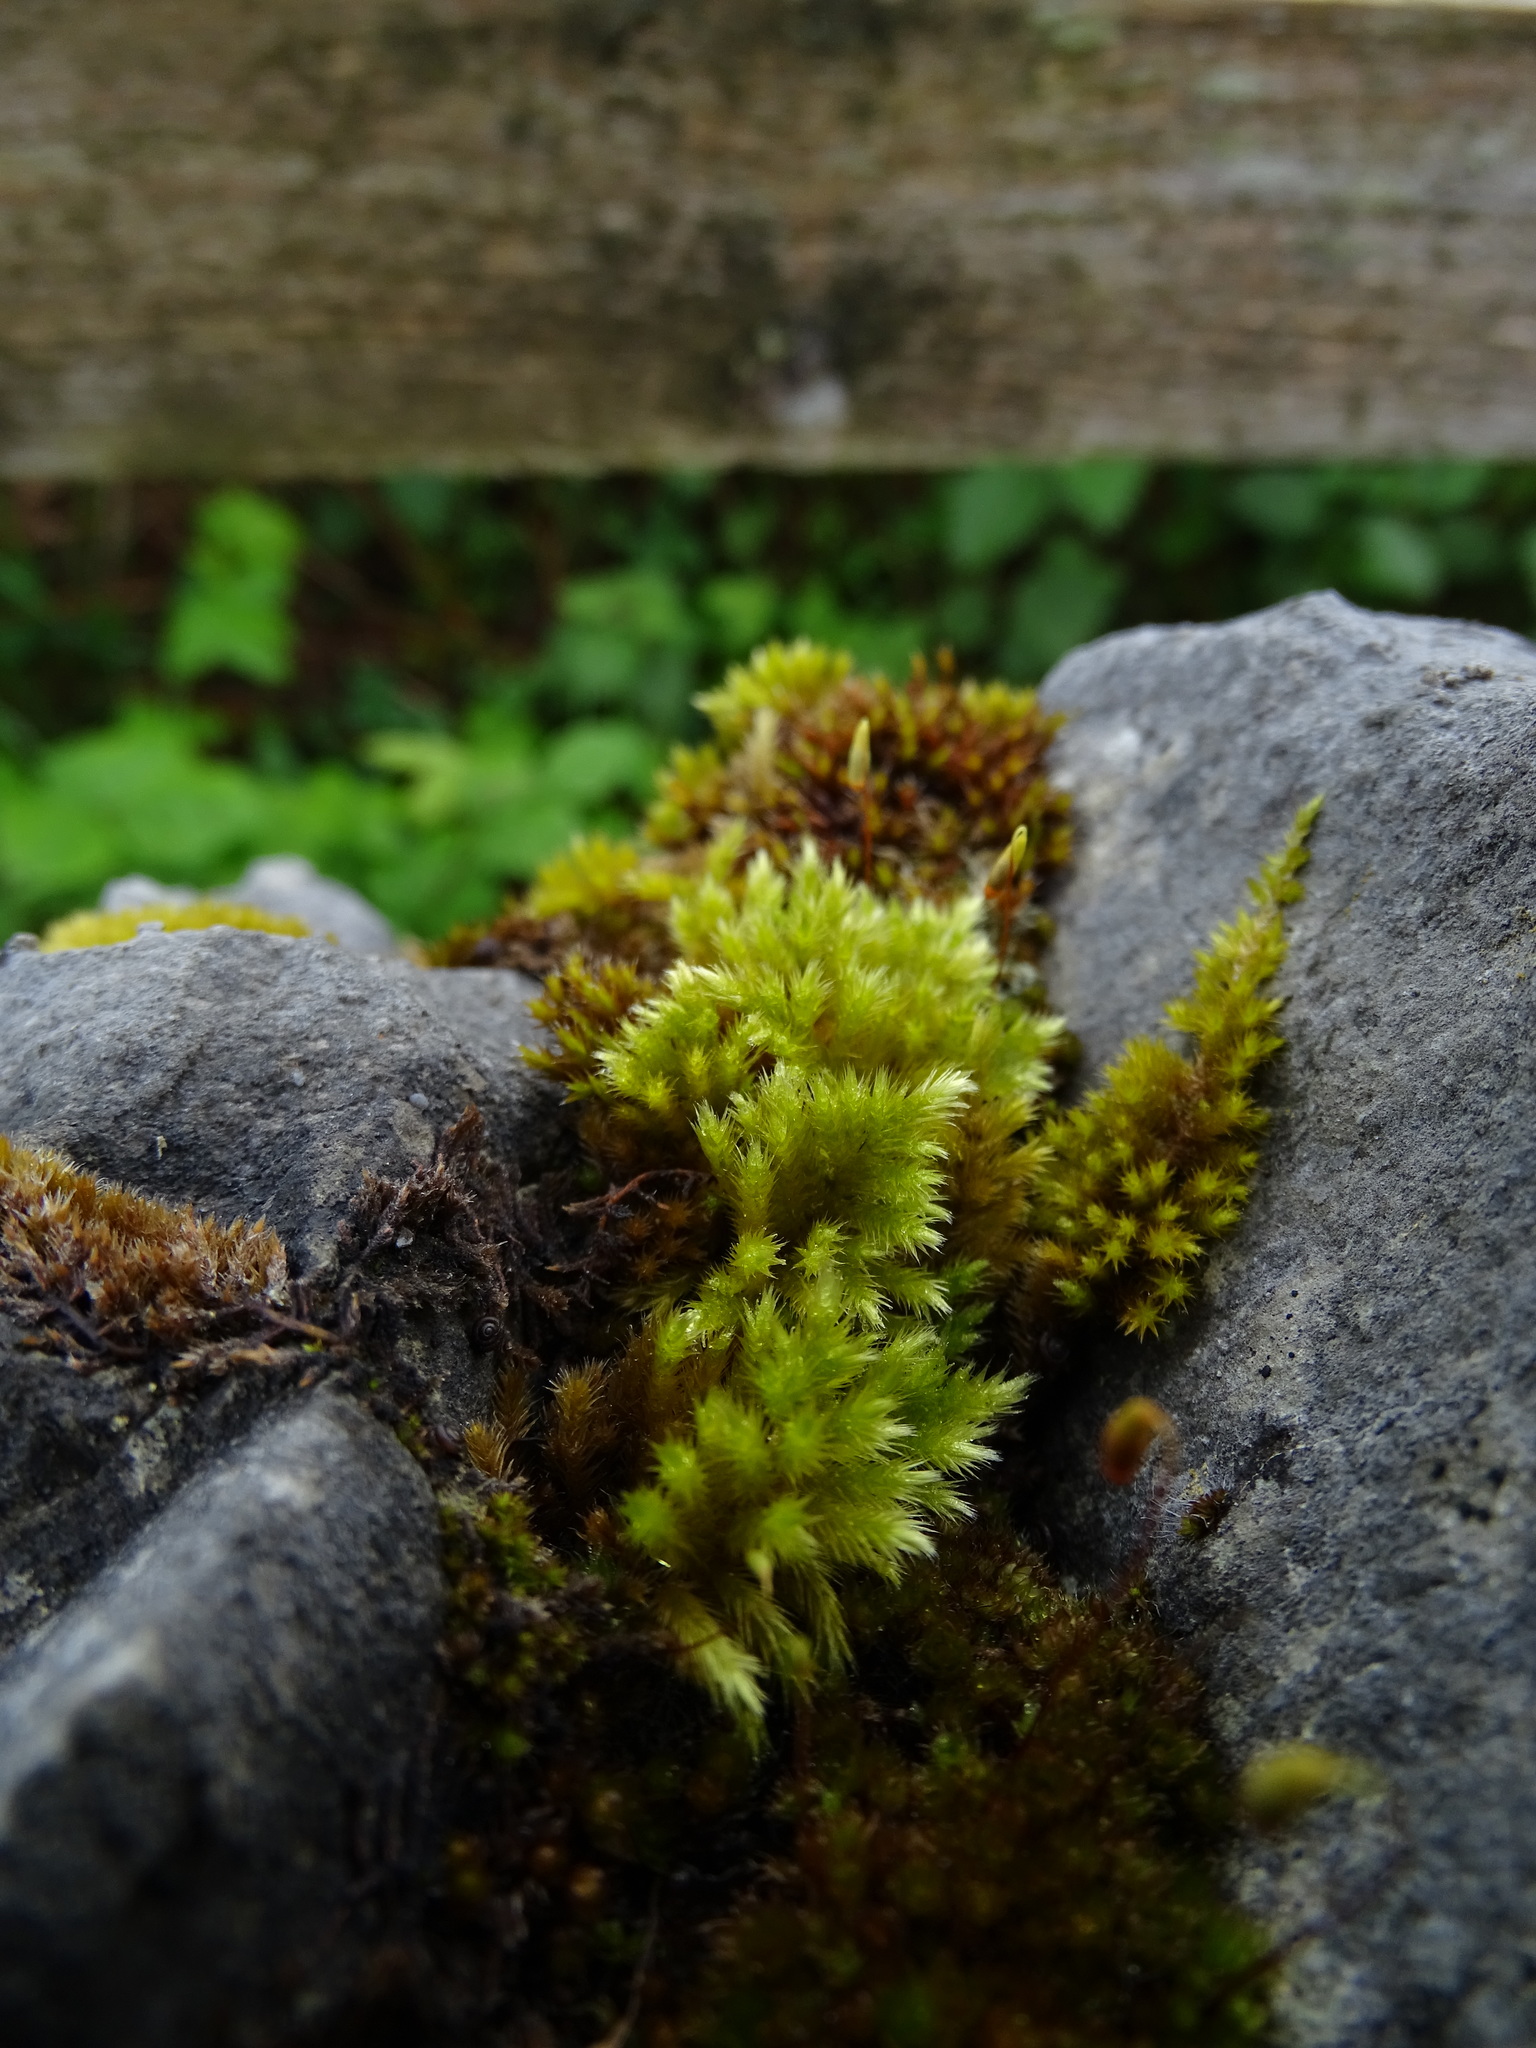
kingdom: Plantae
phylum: Bryophyta
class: Bryopsida
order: Hypnales
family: Brachytheciaceae
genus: Homalothecium
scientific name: Homalothecium sericeum
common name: Silky wall feather-moss
